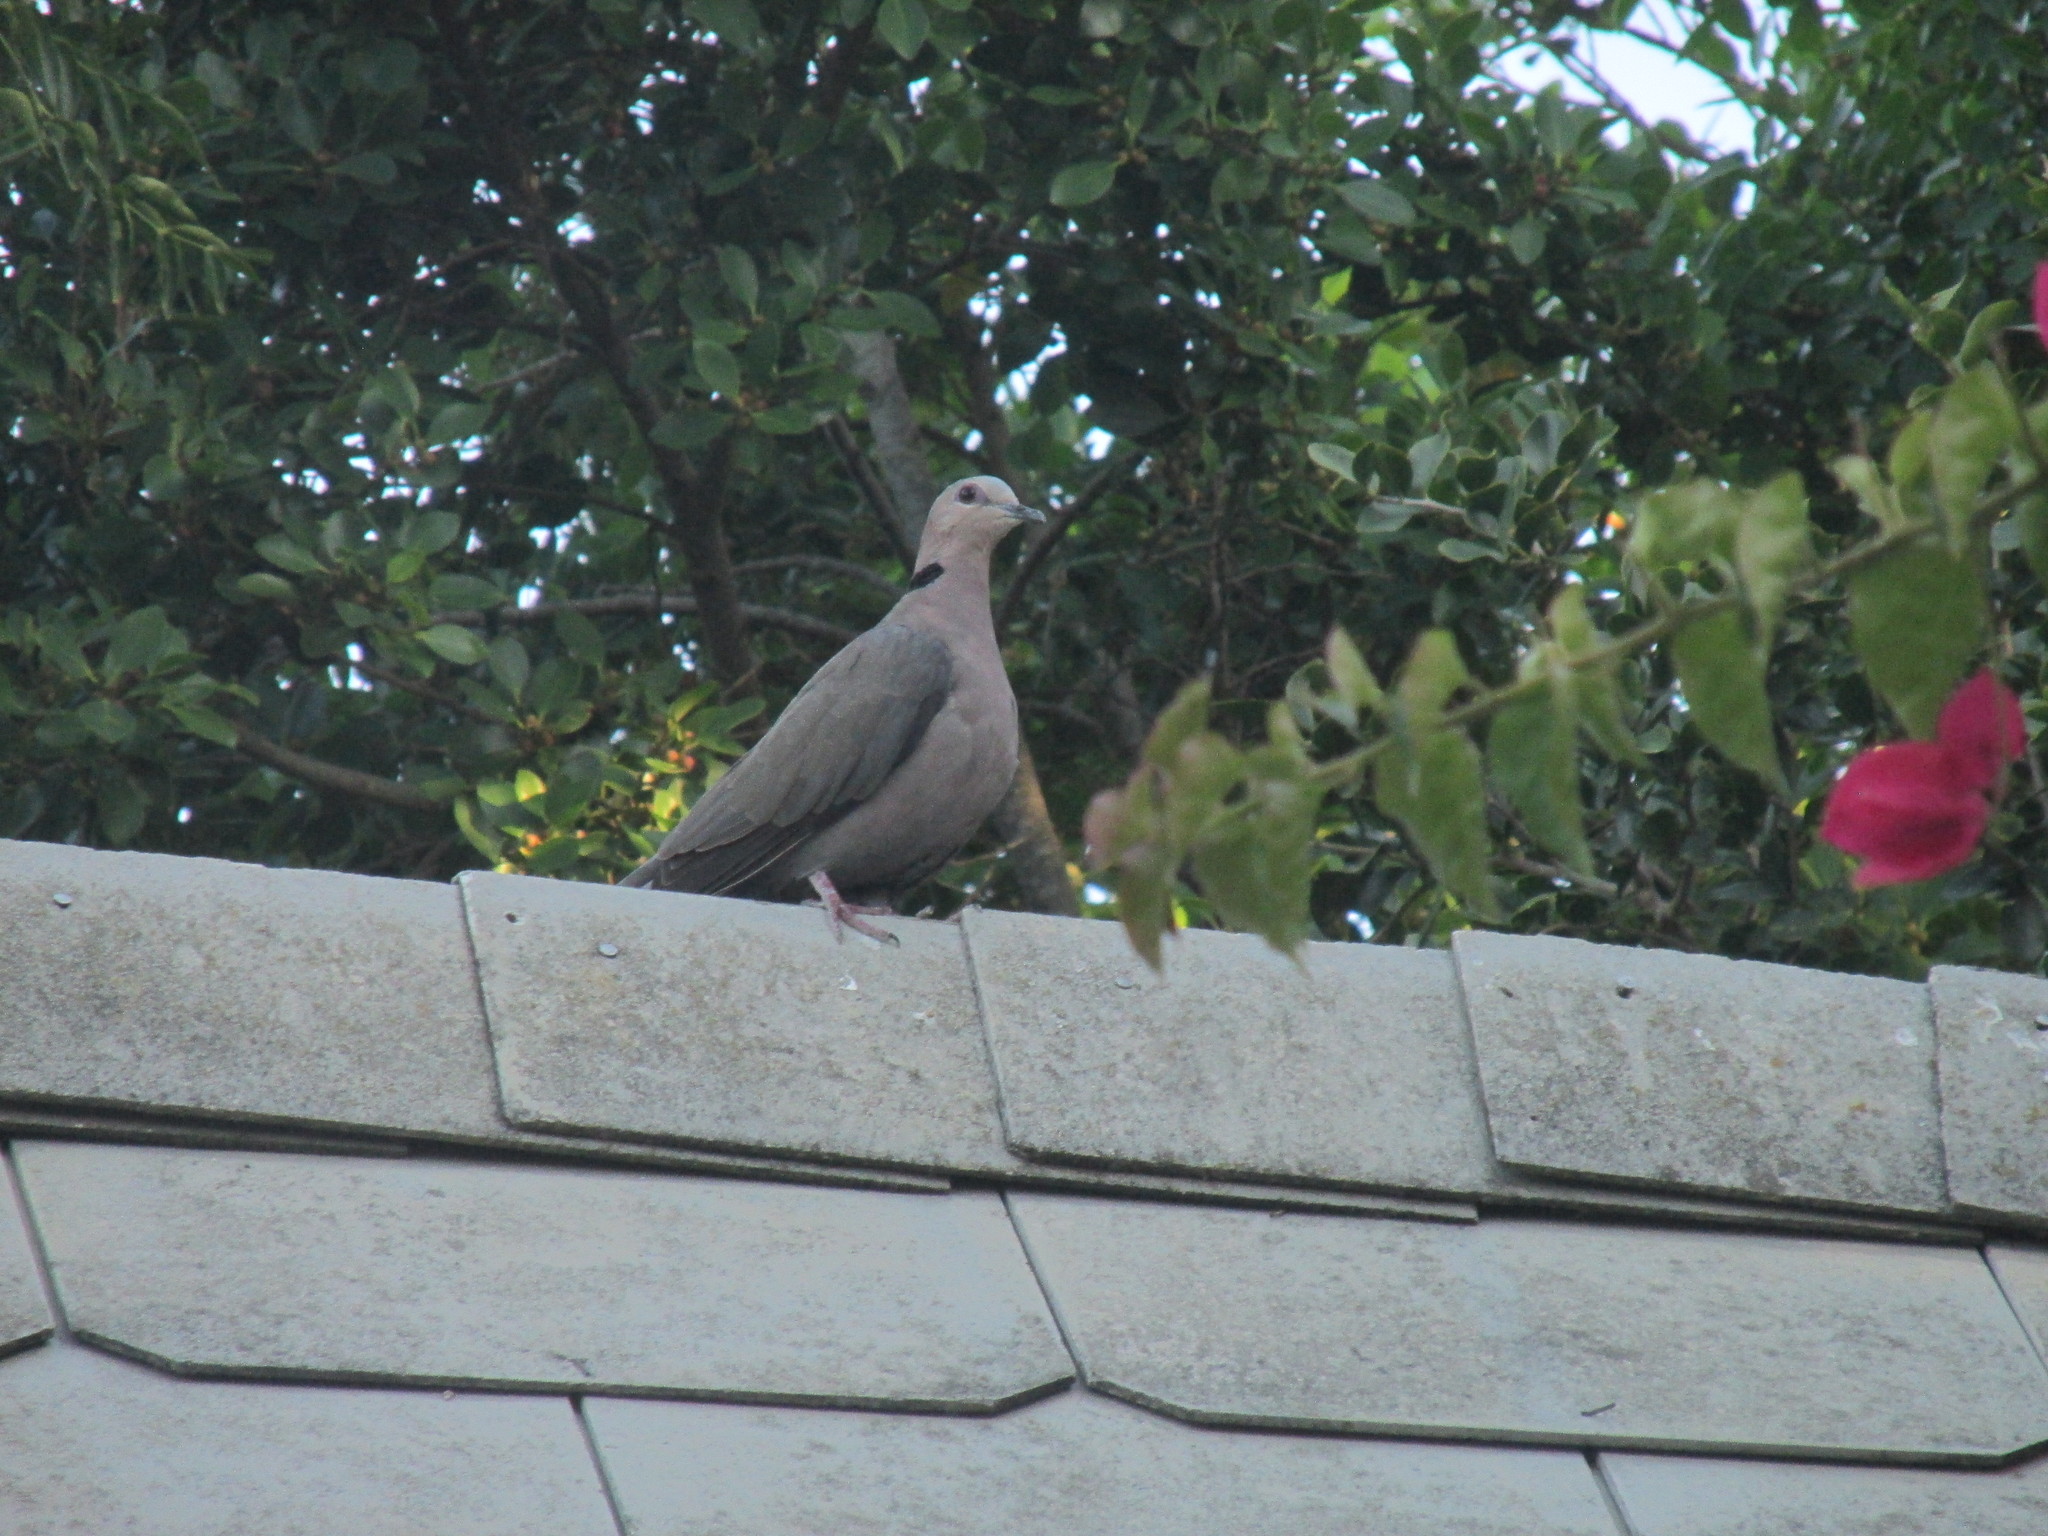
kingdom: Animalia
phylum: Chordata
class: Aves
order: Columbiformes
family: Columbidae
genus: Streptopelia
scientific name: Streptopelia semitorquata
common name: Red-eyed dove
